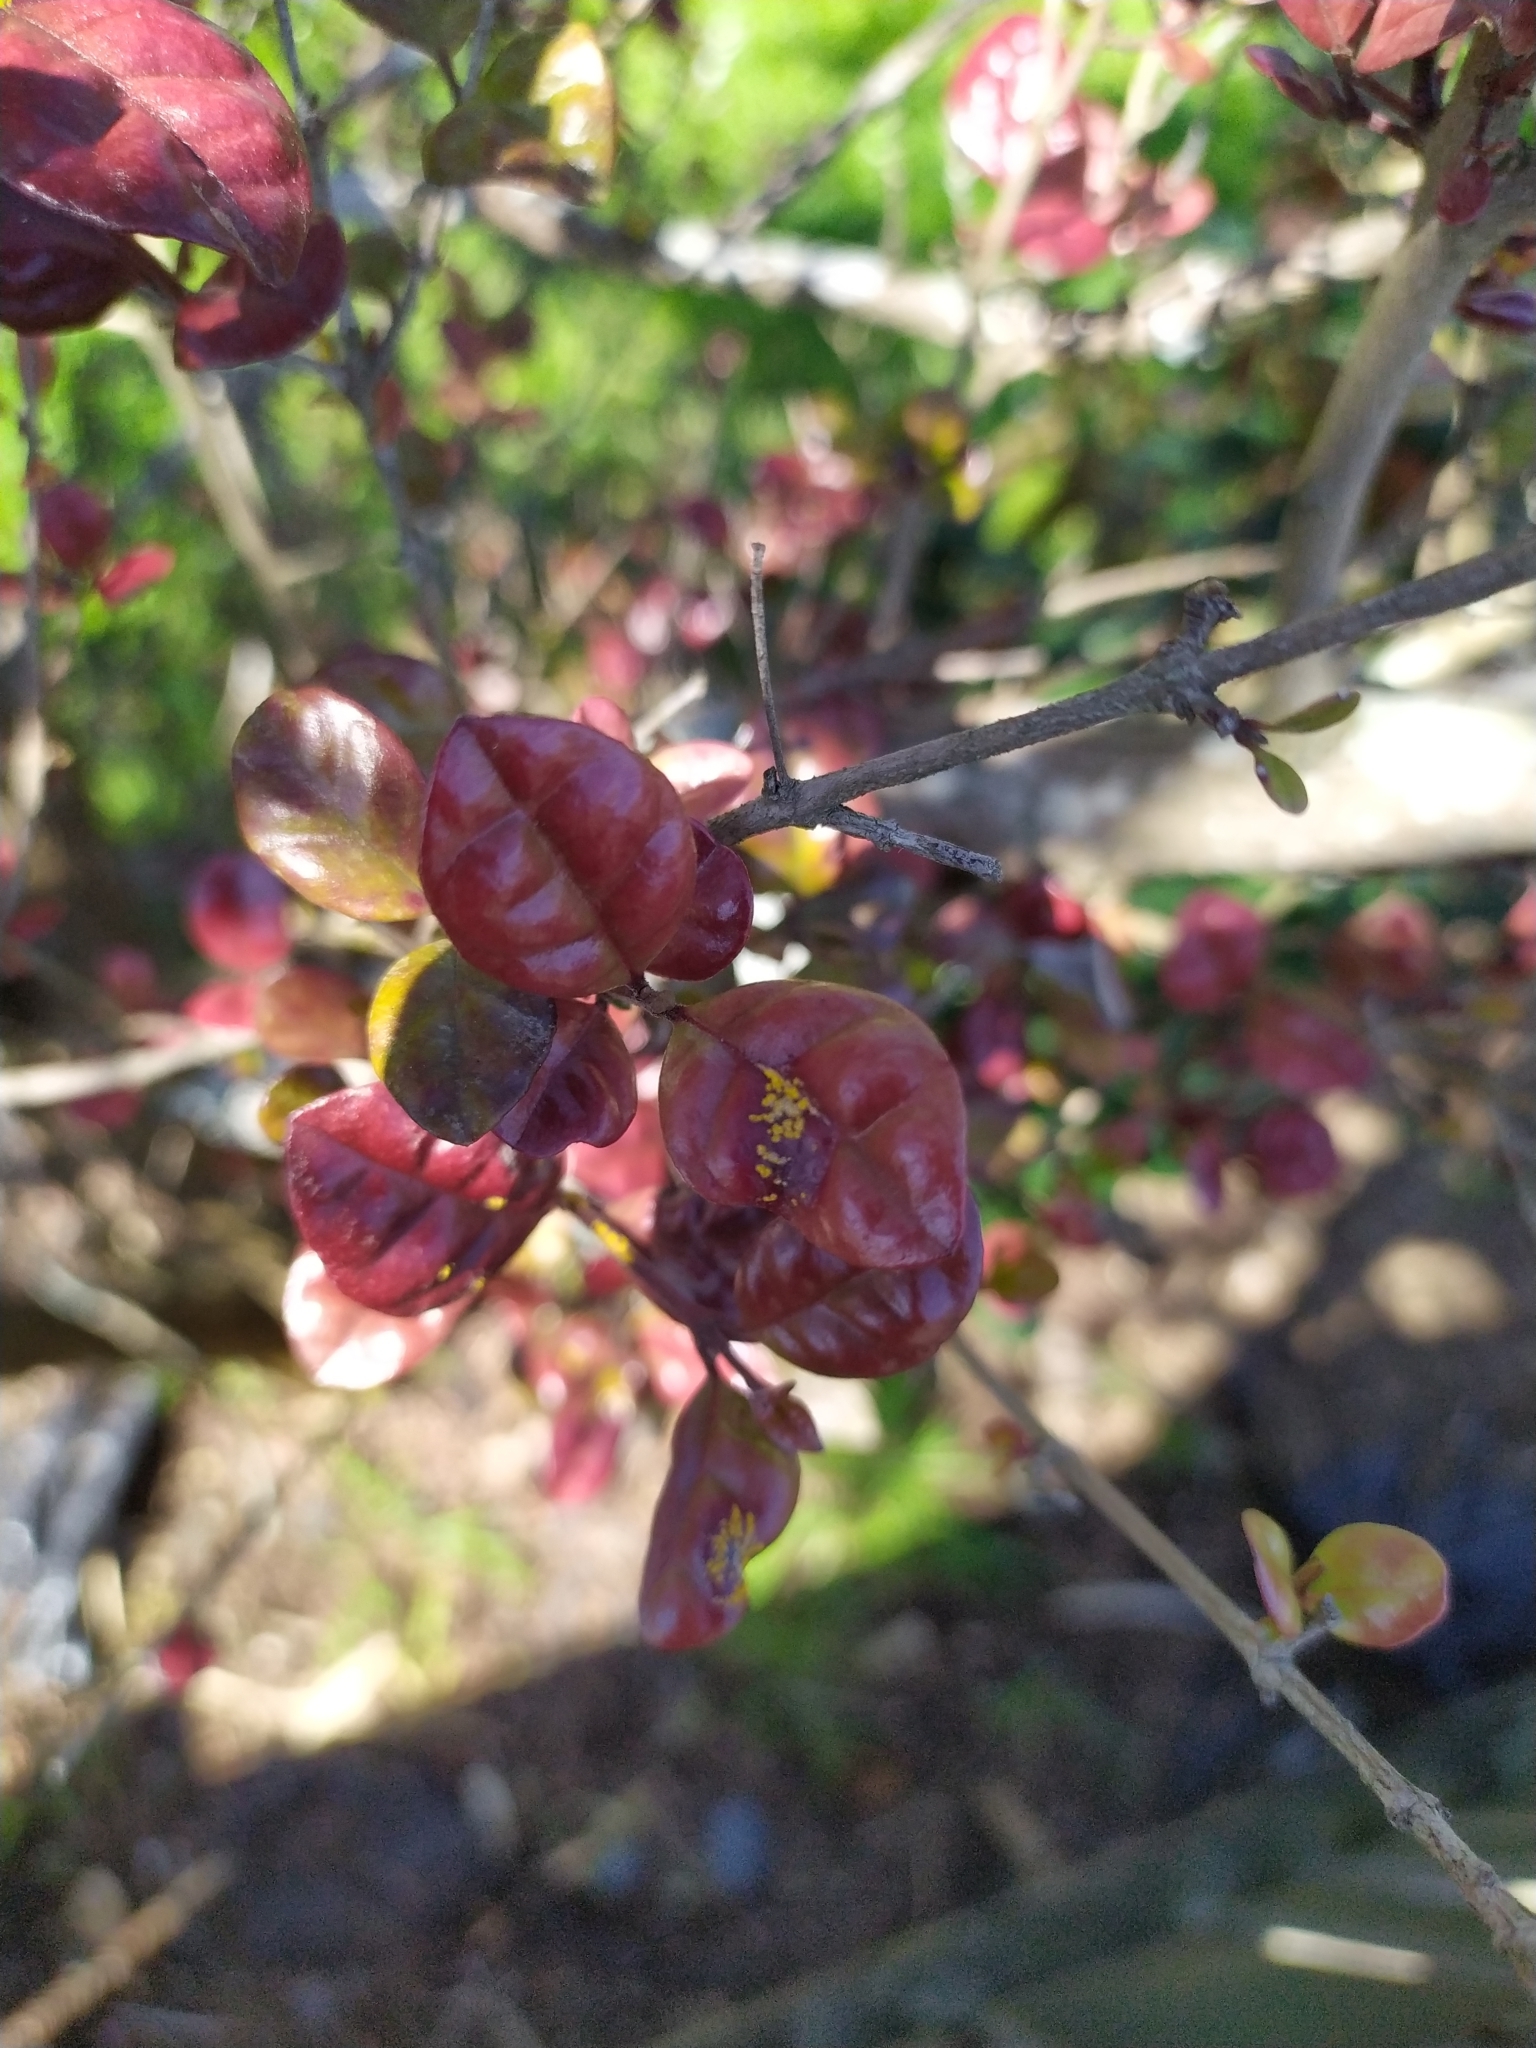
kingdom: Fungi
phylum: Basidiomycota
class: Pucciniomycetes
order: Pucciniales
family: Sphaerophragmiaceae
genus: Austropuccinia
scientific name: Austropuccinia psidii
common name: Myrtle rust
